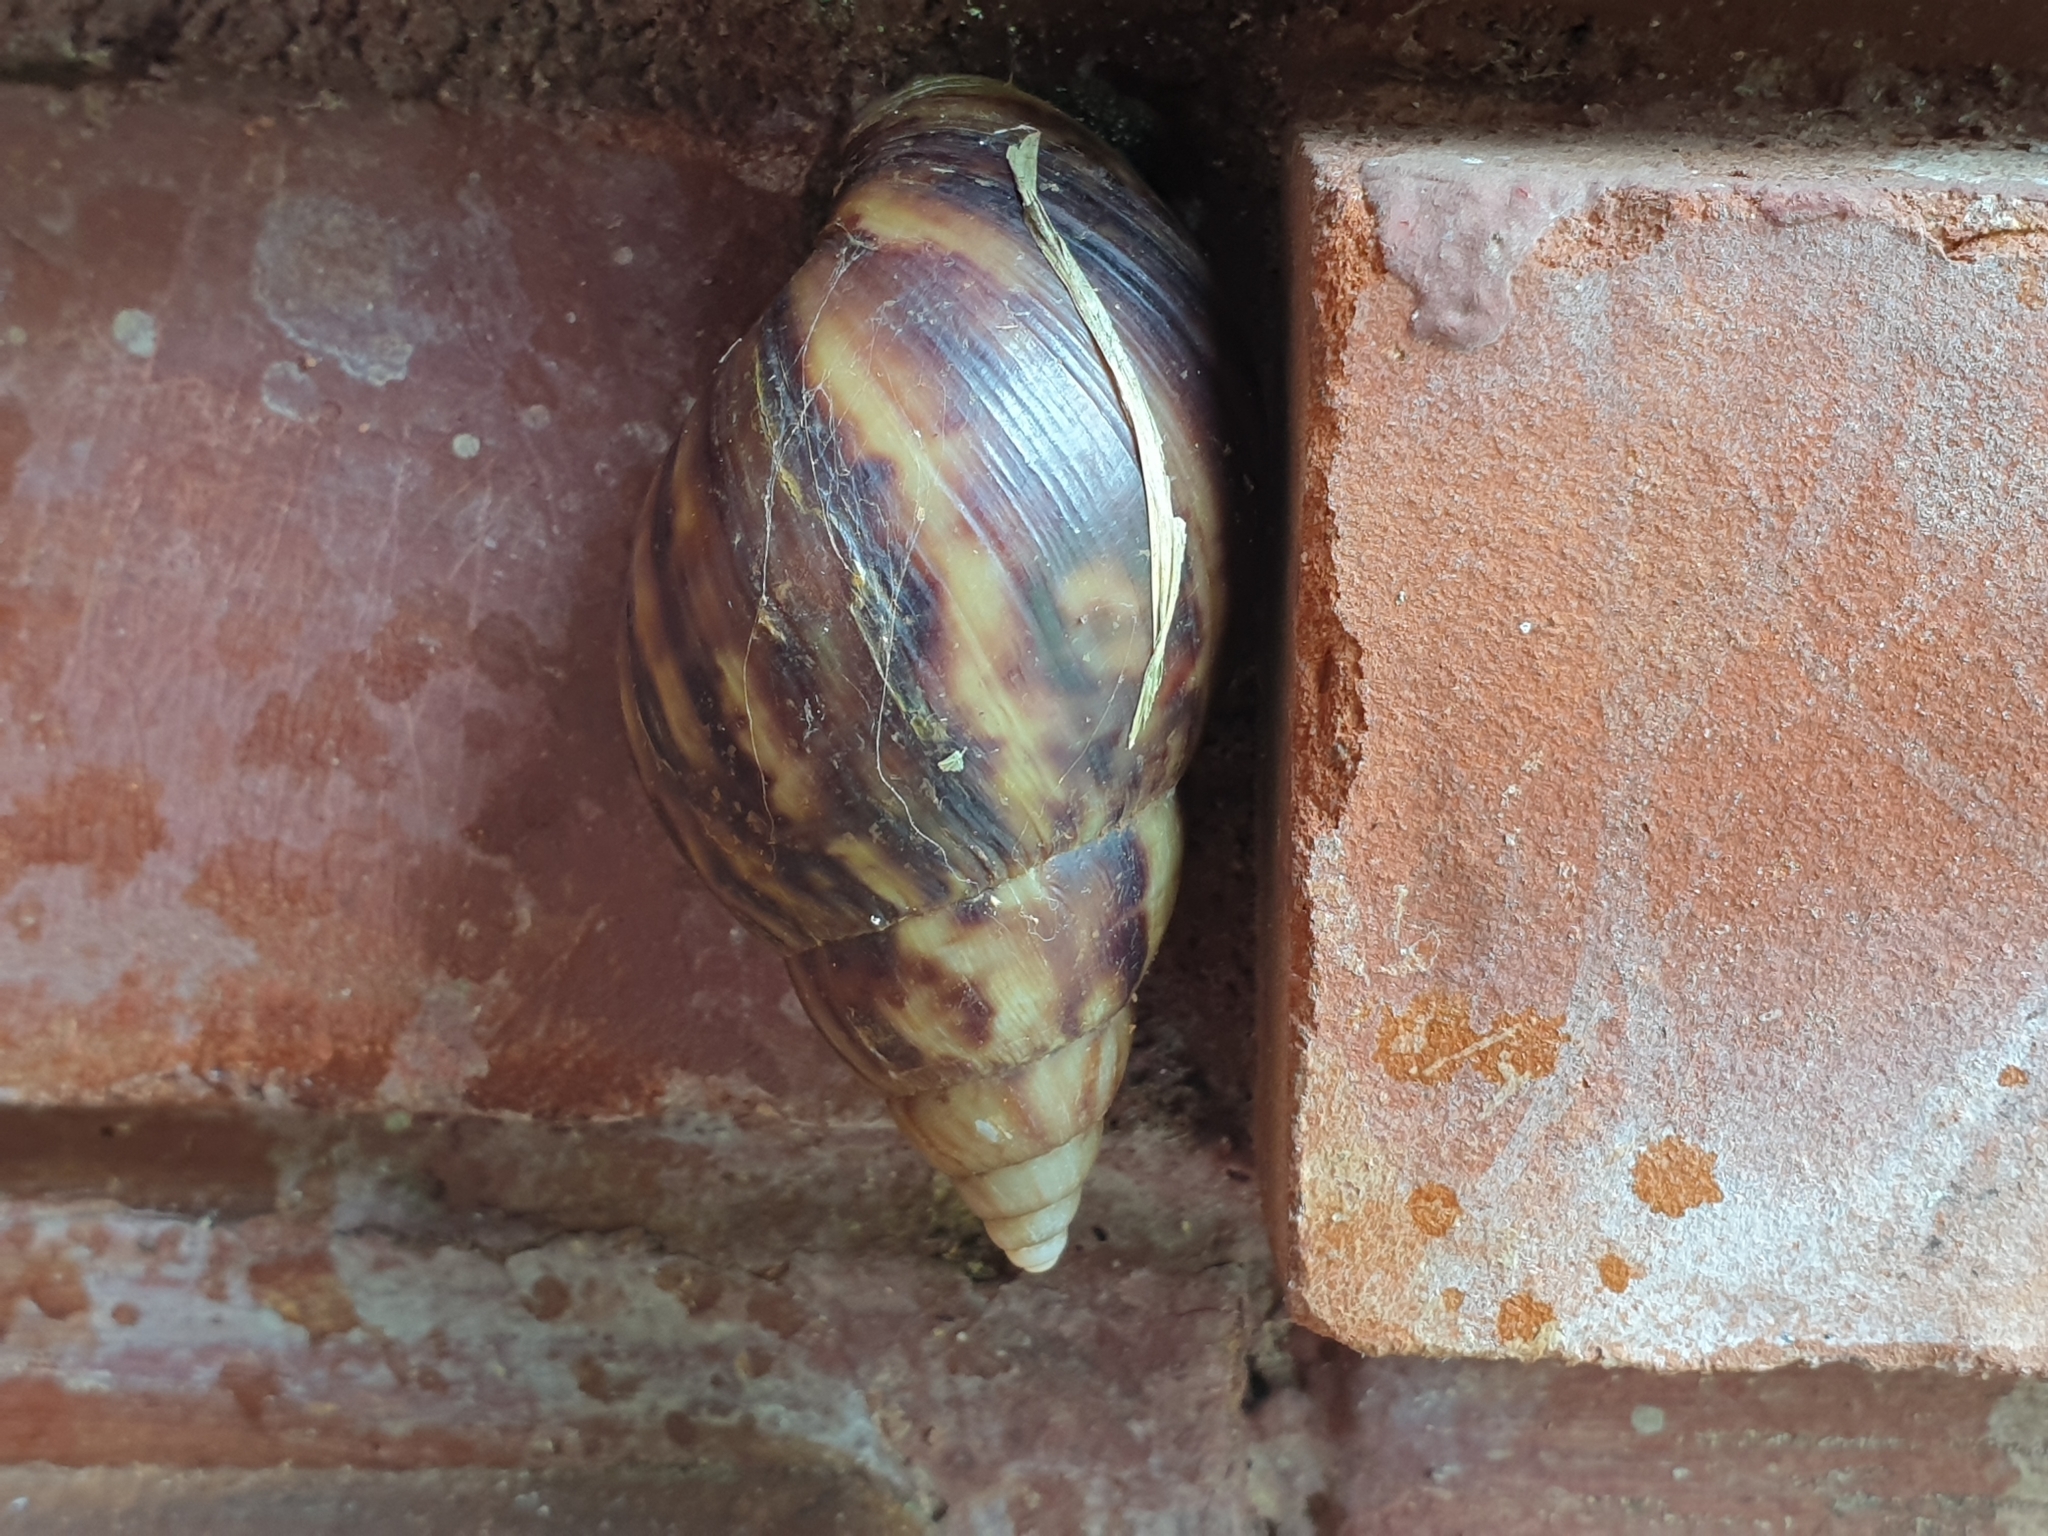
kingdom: Animalia
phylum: Mollusca
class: Gastropoda
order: Stylommatophora
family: Achatinidae
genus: Lissachatina
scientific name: Lissachatina fulica
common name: Giant african snail
